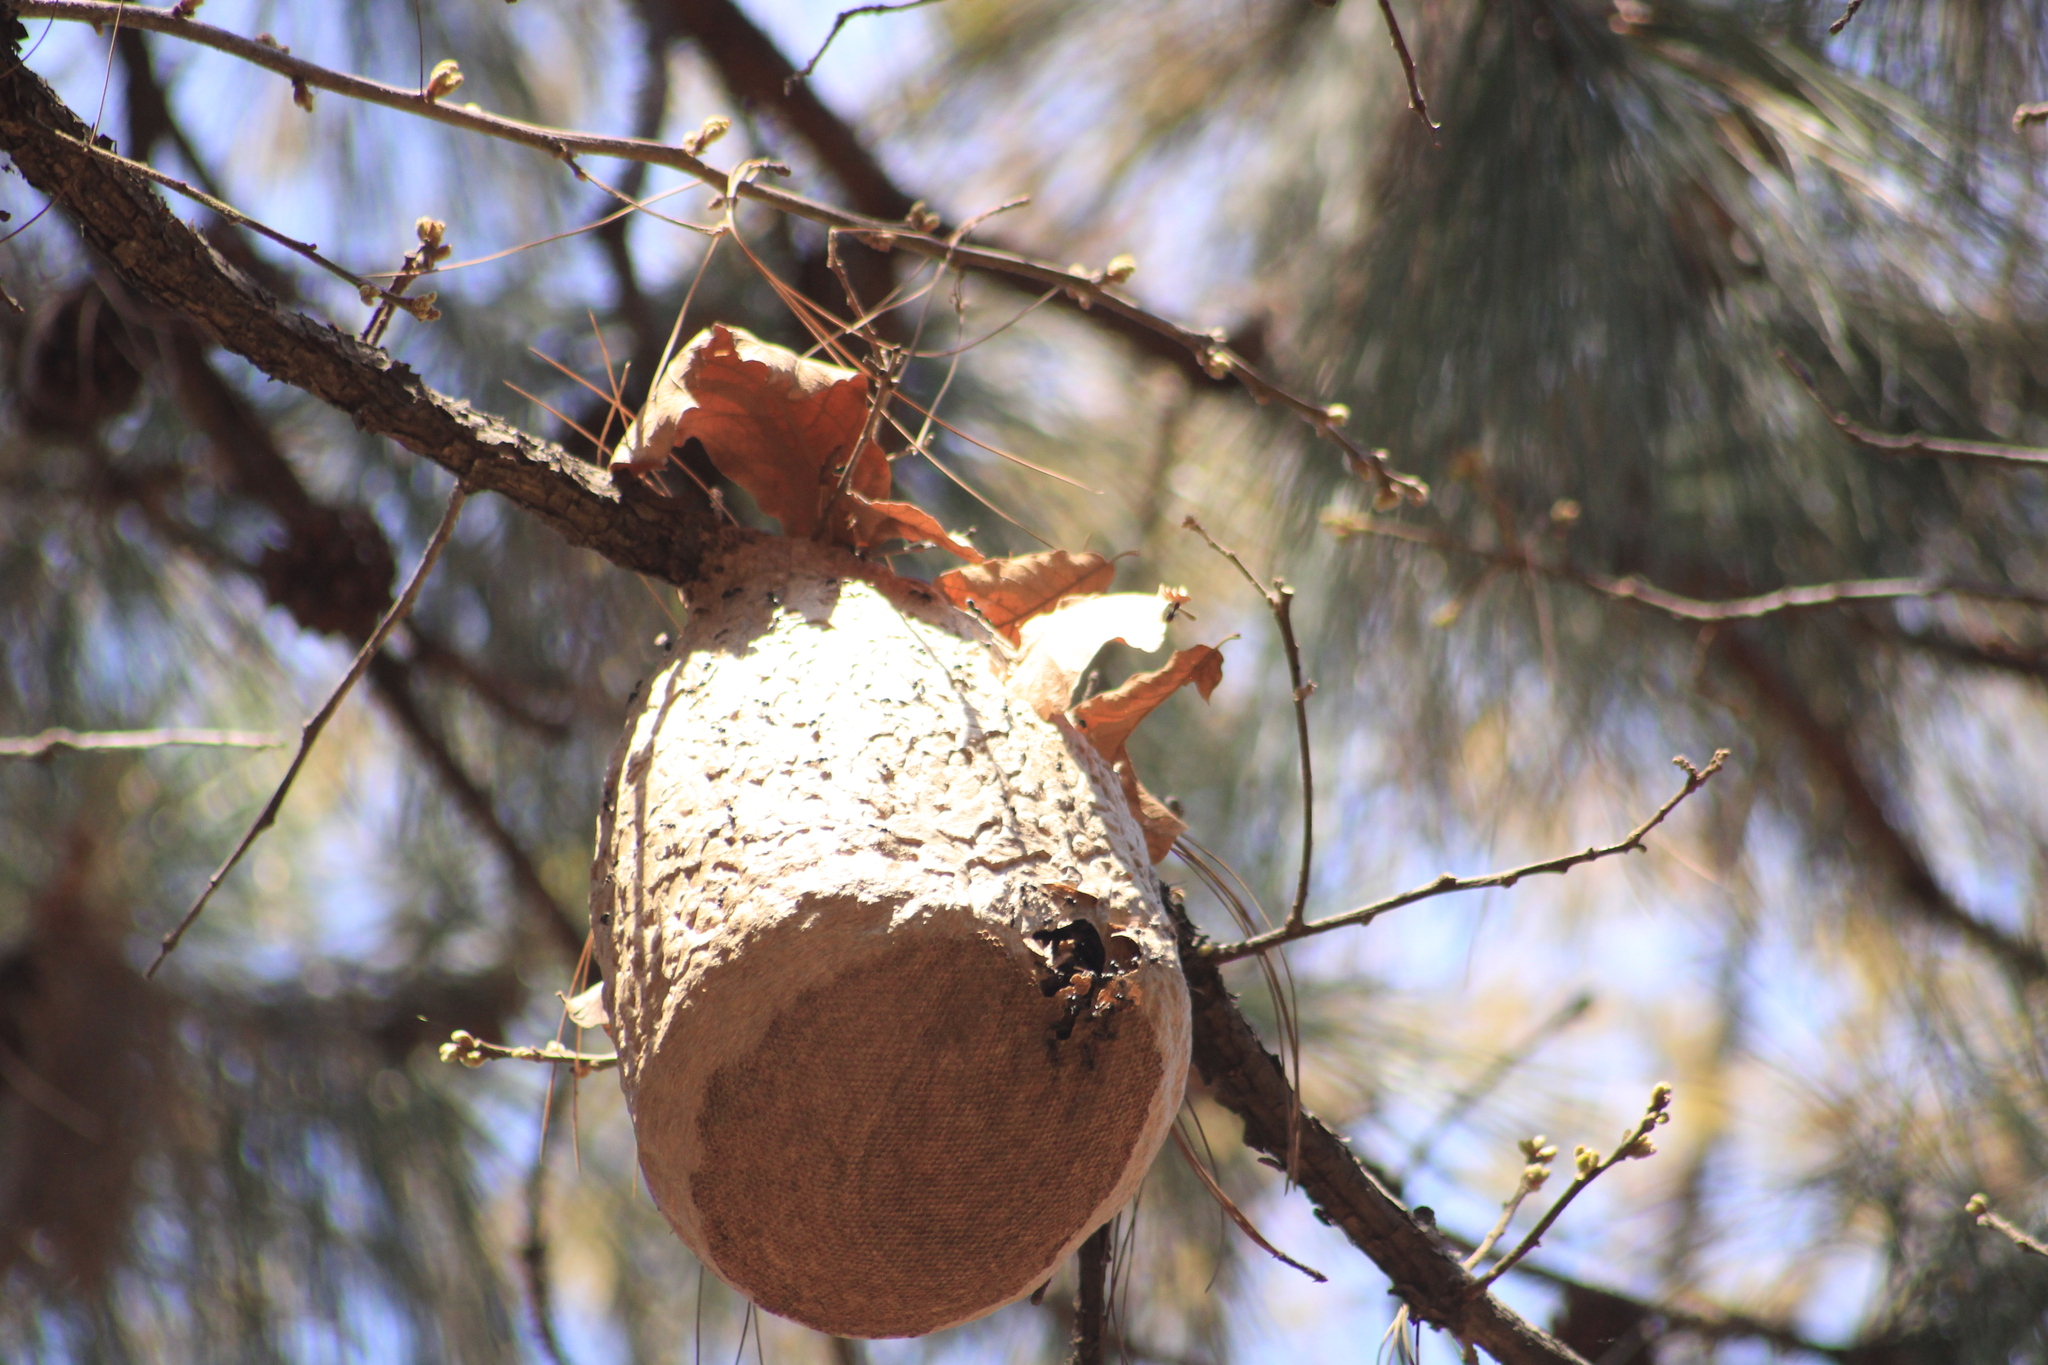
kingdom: Animalia
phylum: Arthropoda
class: Insecta
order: Hymenoptera
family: Eumenidae
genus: Polybia
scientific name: Polybia plebeja
